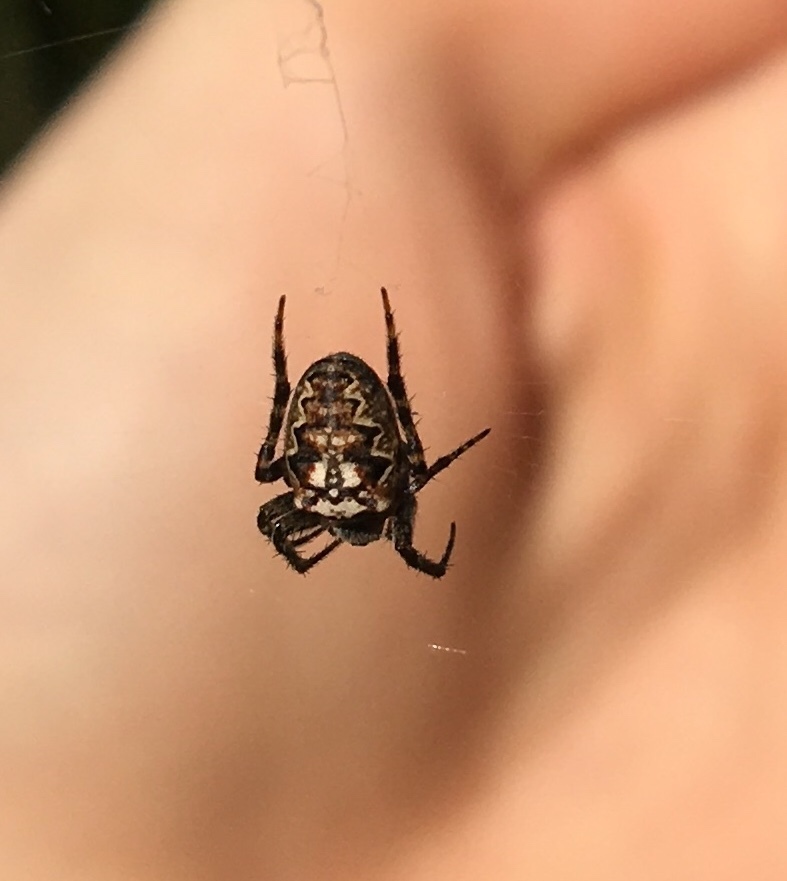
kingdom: Animalia
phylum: Arthropoda
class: Arachnida
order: Araneae
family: Araneidae
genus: Plebs
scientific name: Plebs eburnus
